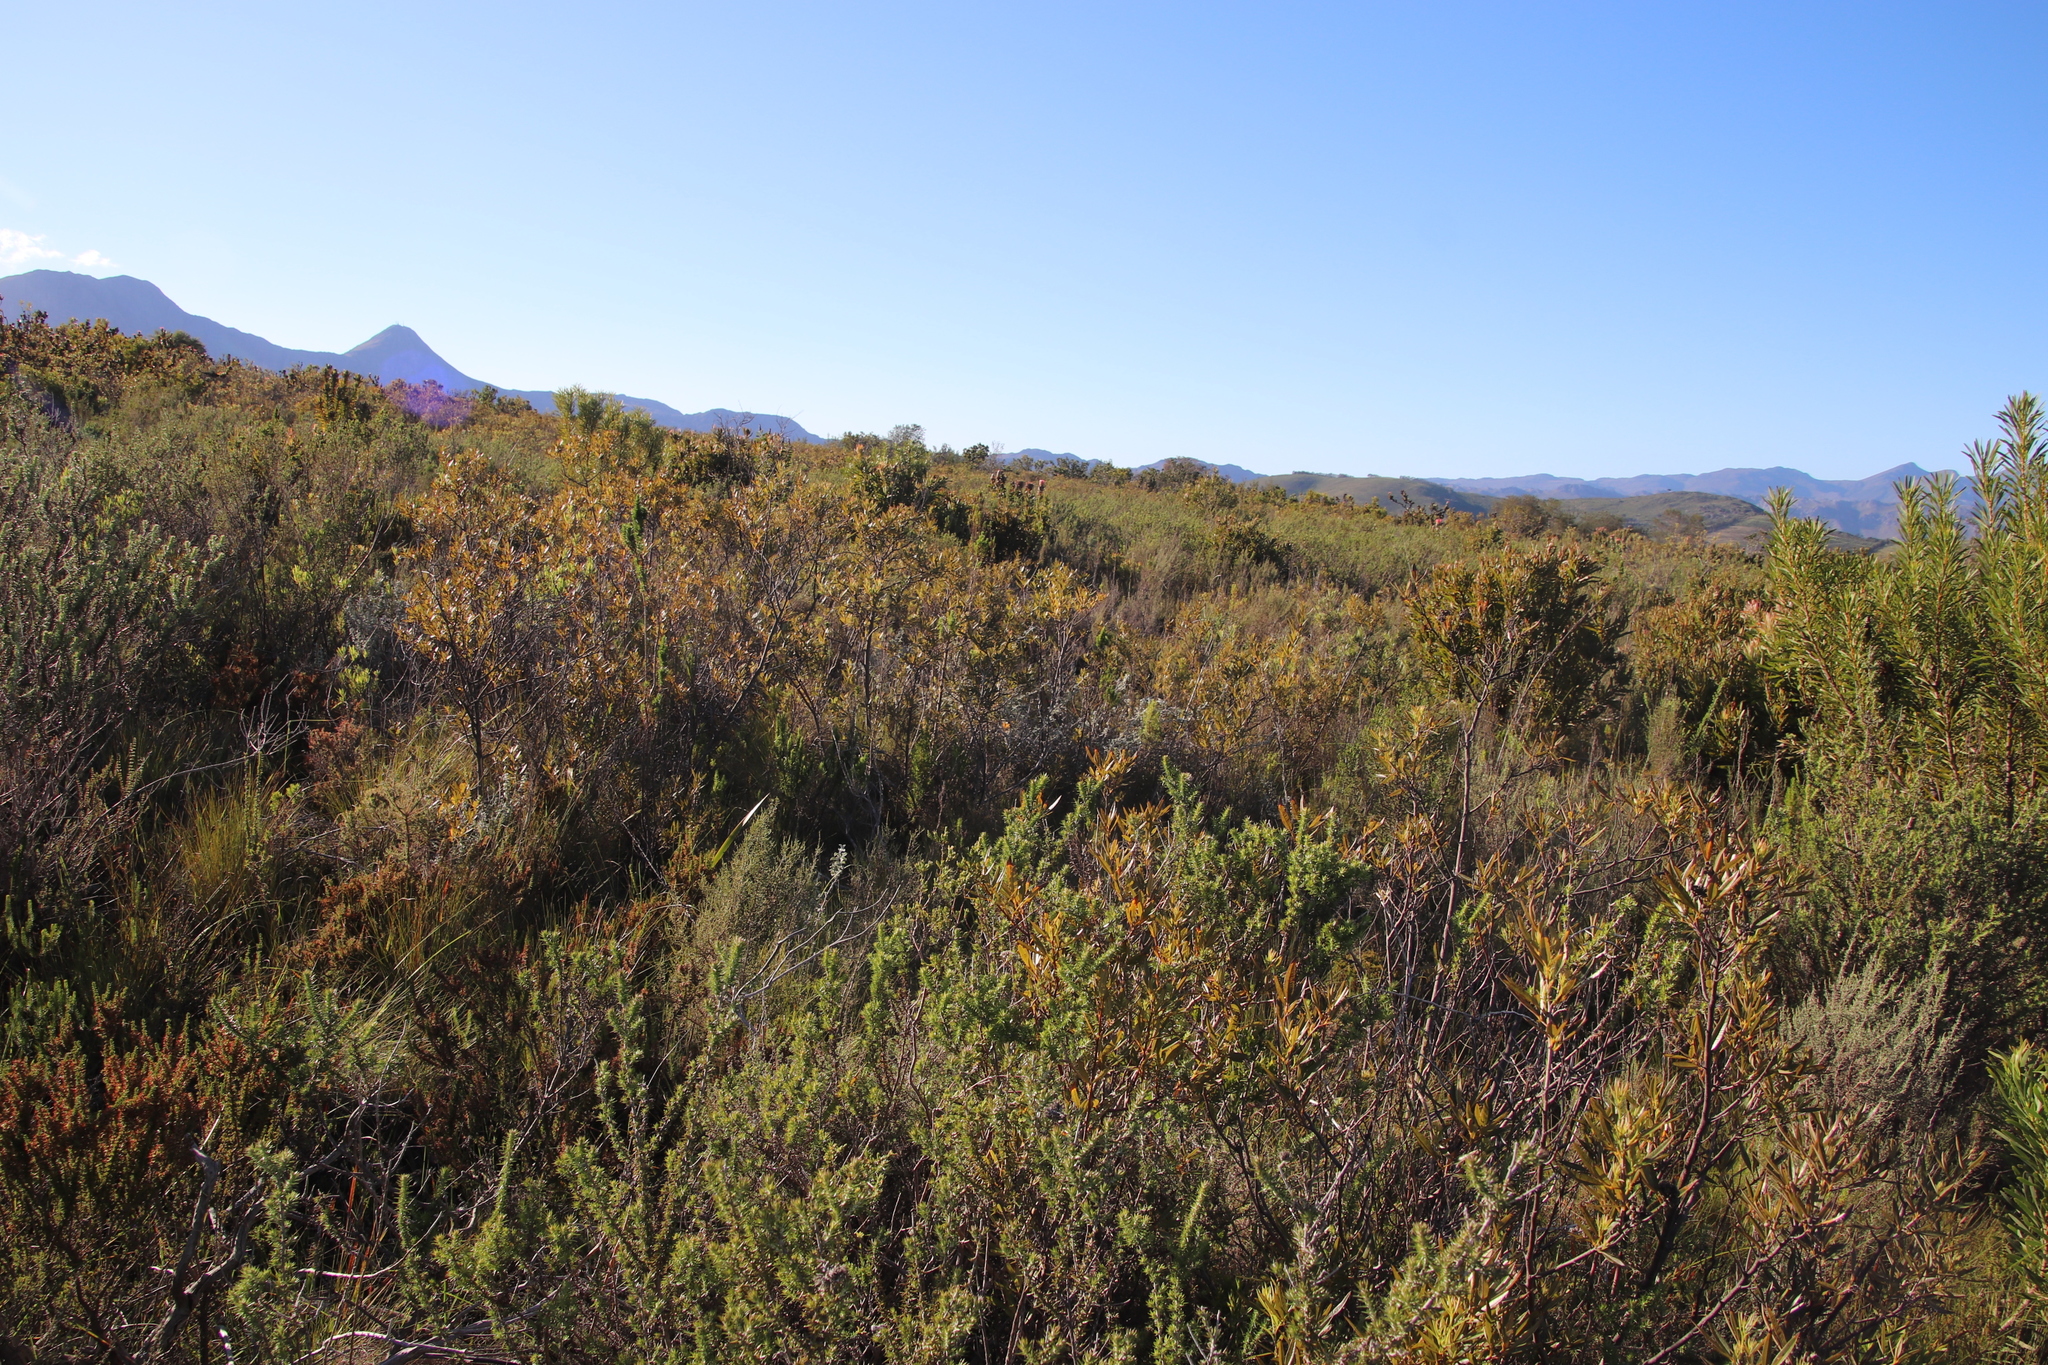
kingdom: Plantae
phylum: Tracheophyta
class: Magnoliopsida
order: Sapindales
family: Anacardiaceae
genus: Searsia
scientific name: Searsia angustifolia
